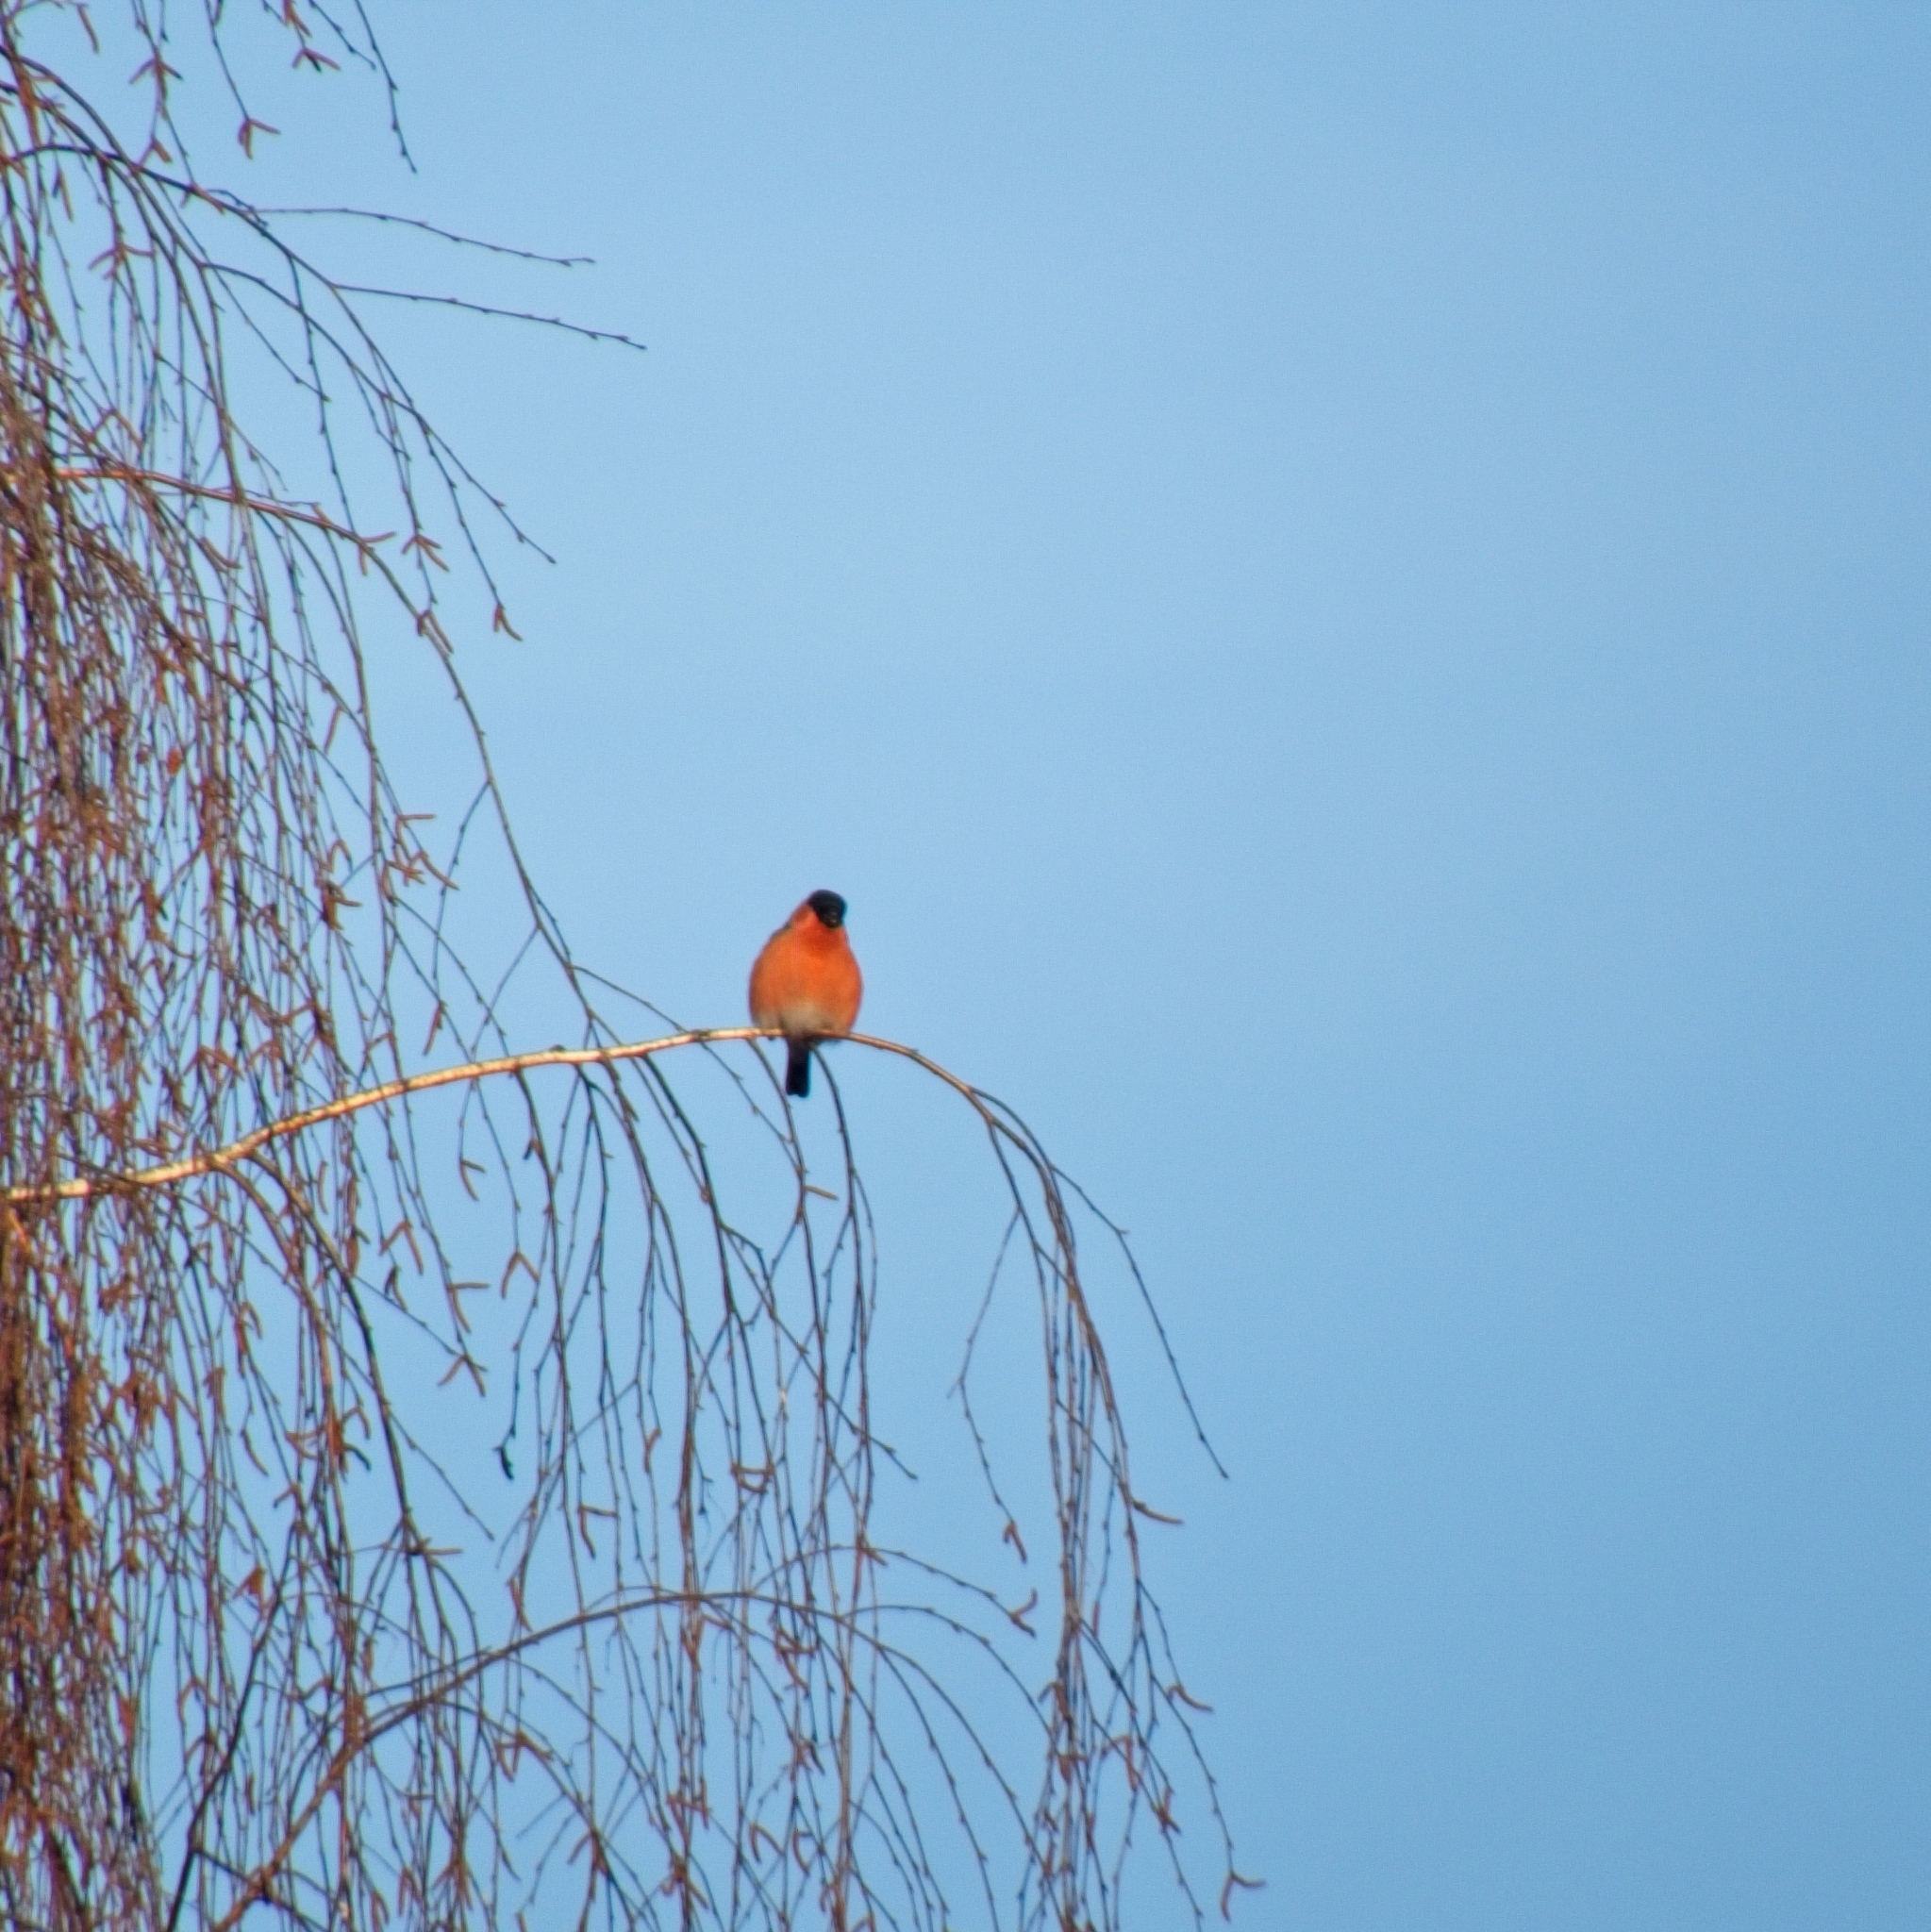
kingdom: Animalia
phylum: Chordata
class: Aves
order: Passeriformes
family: Fringillidae
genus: Pyrrhula
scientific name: Pyrrhula pyrrhula
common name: Eurasian bullfinch
